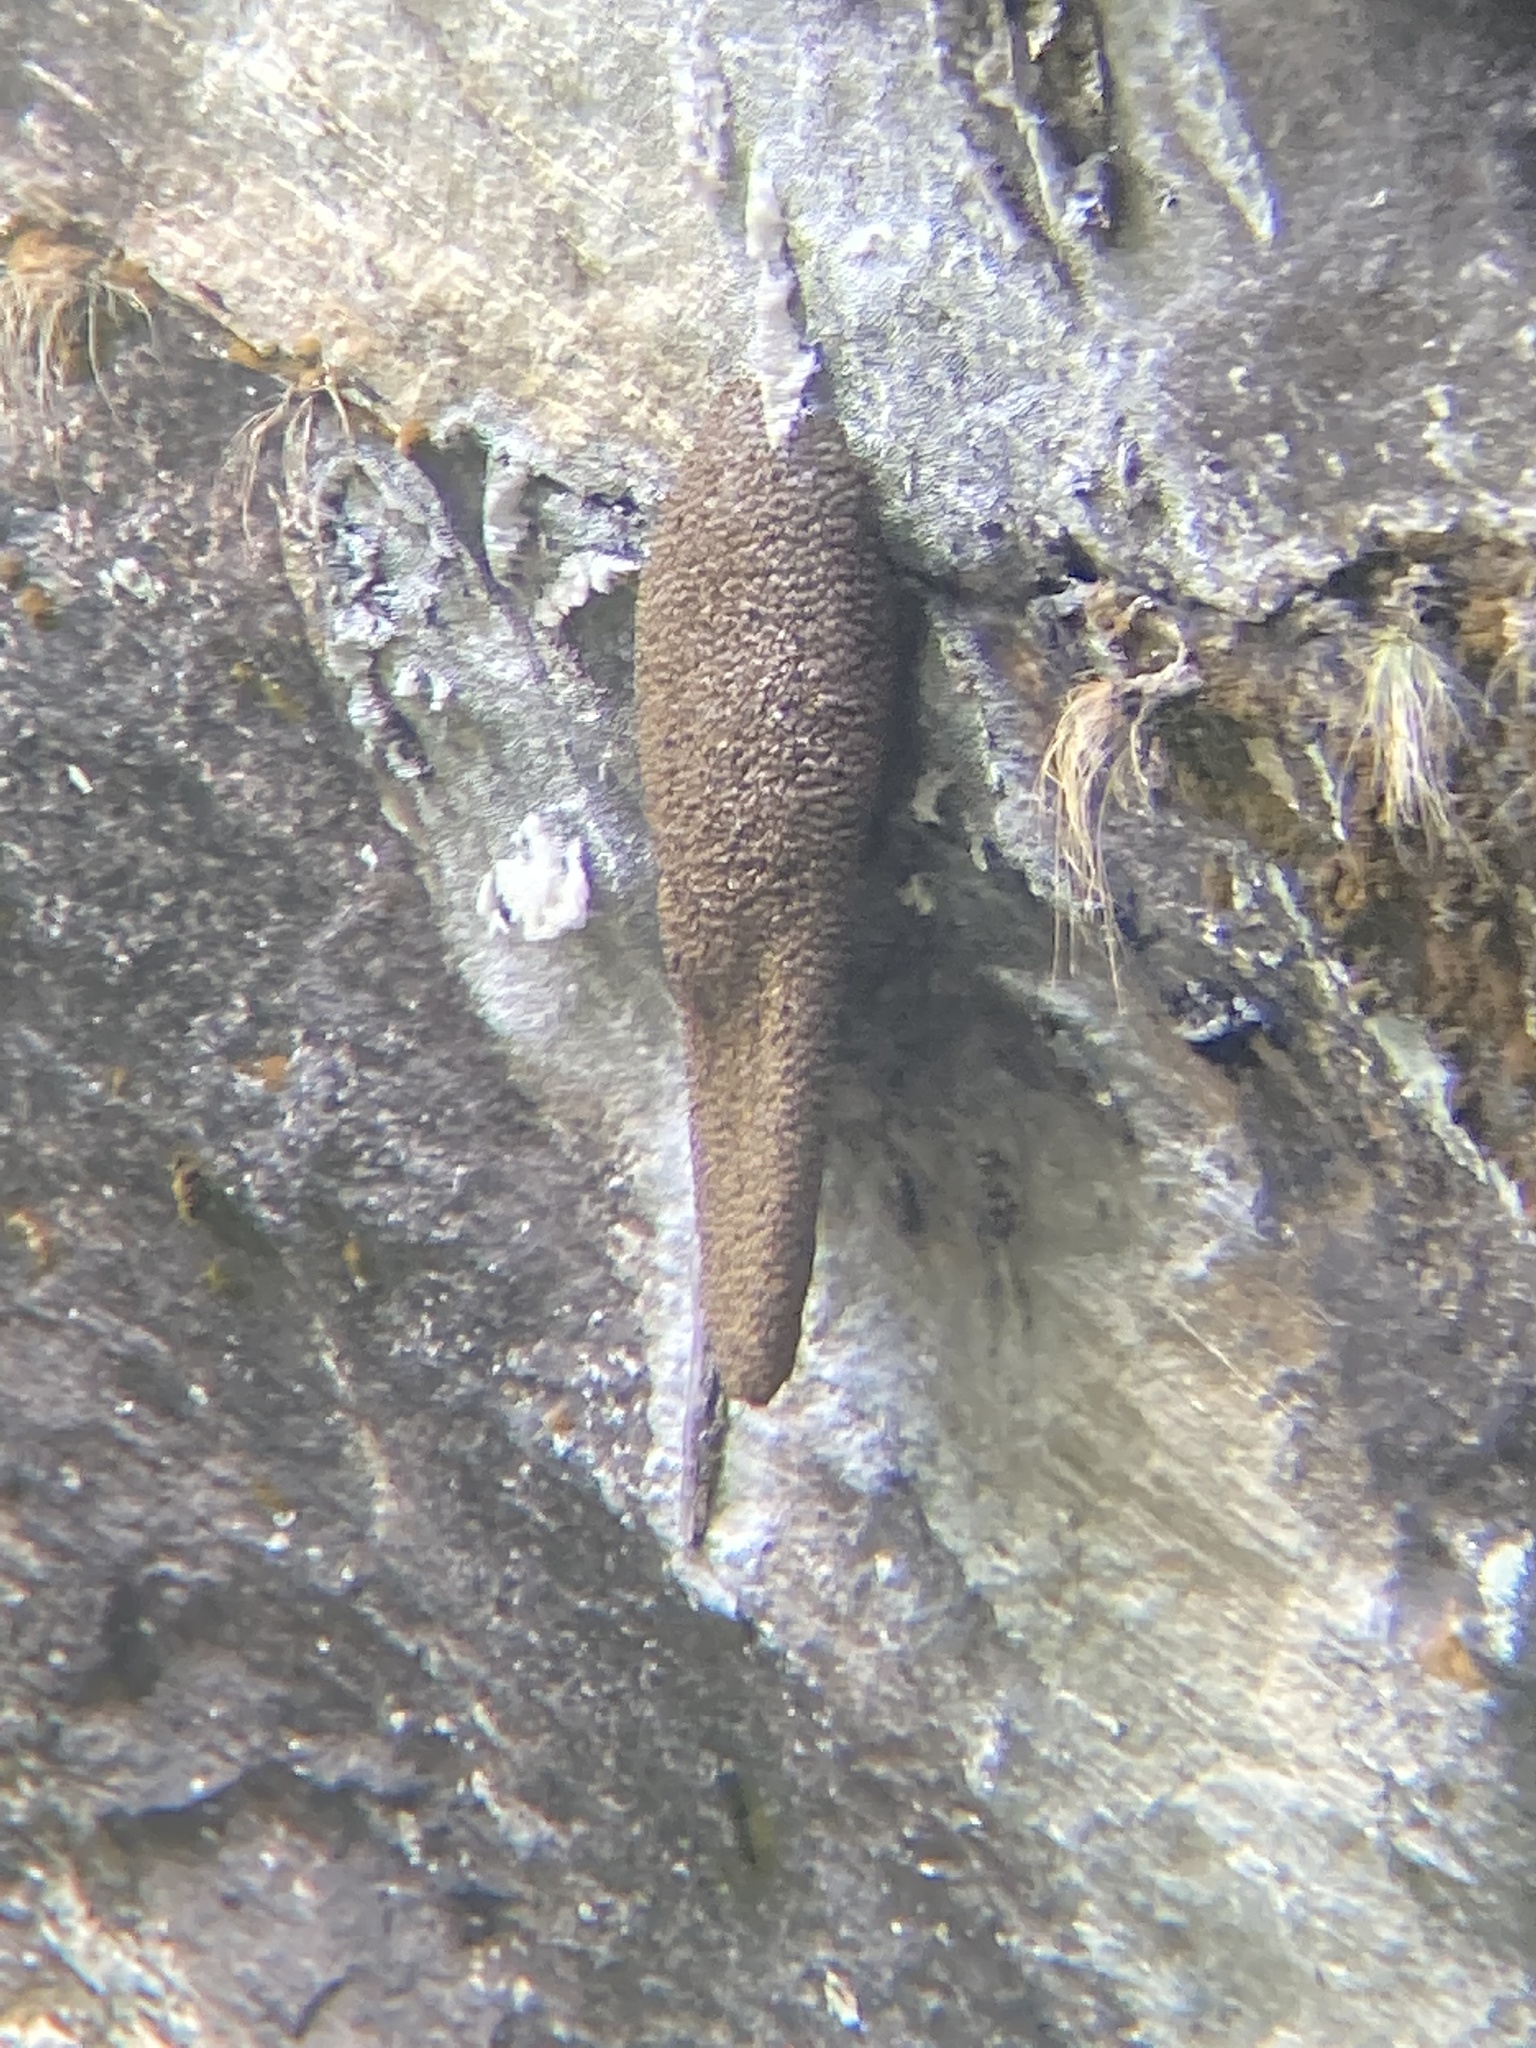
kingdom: Animalia
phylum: Arthropoda
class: Insecta
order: Hymenoptera
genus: Megapis
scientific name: Megapis
